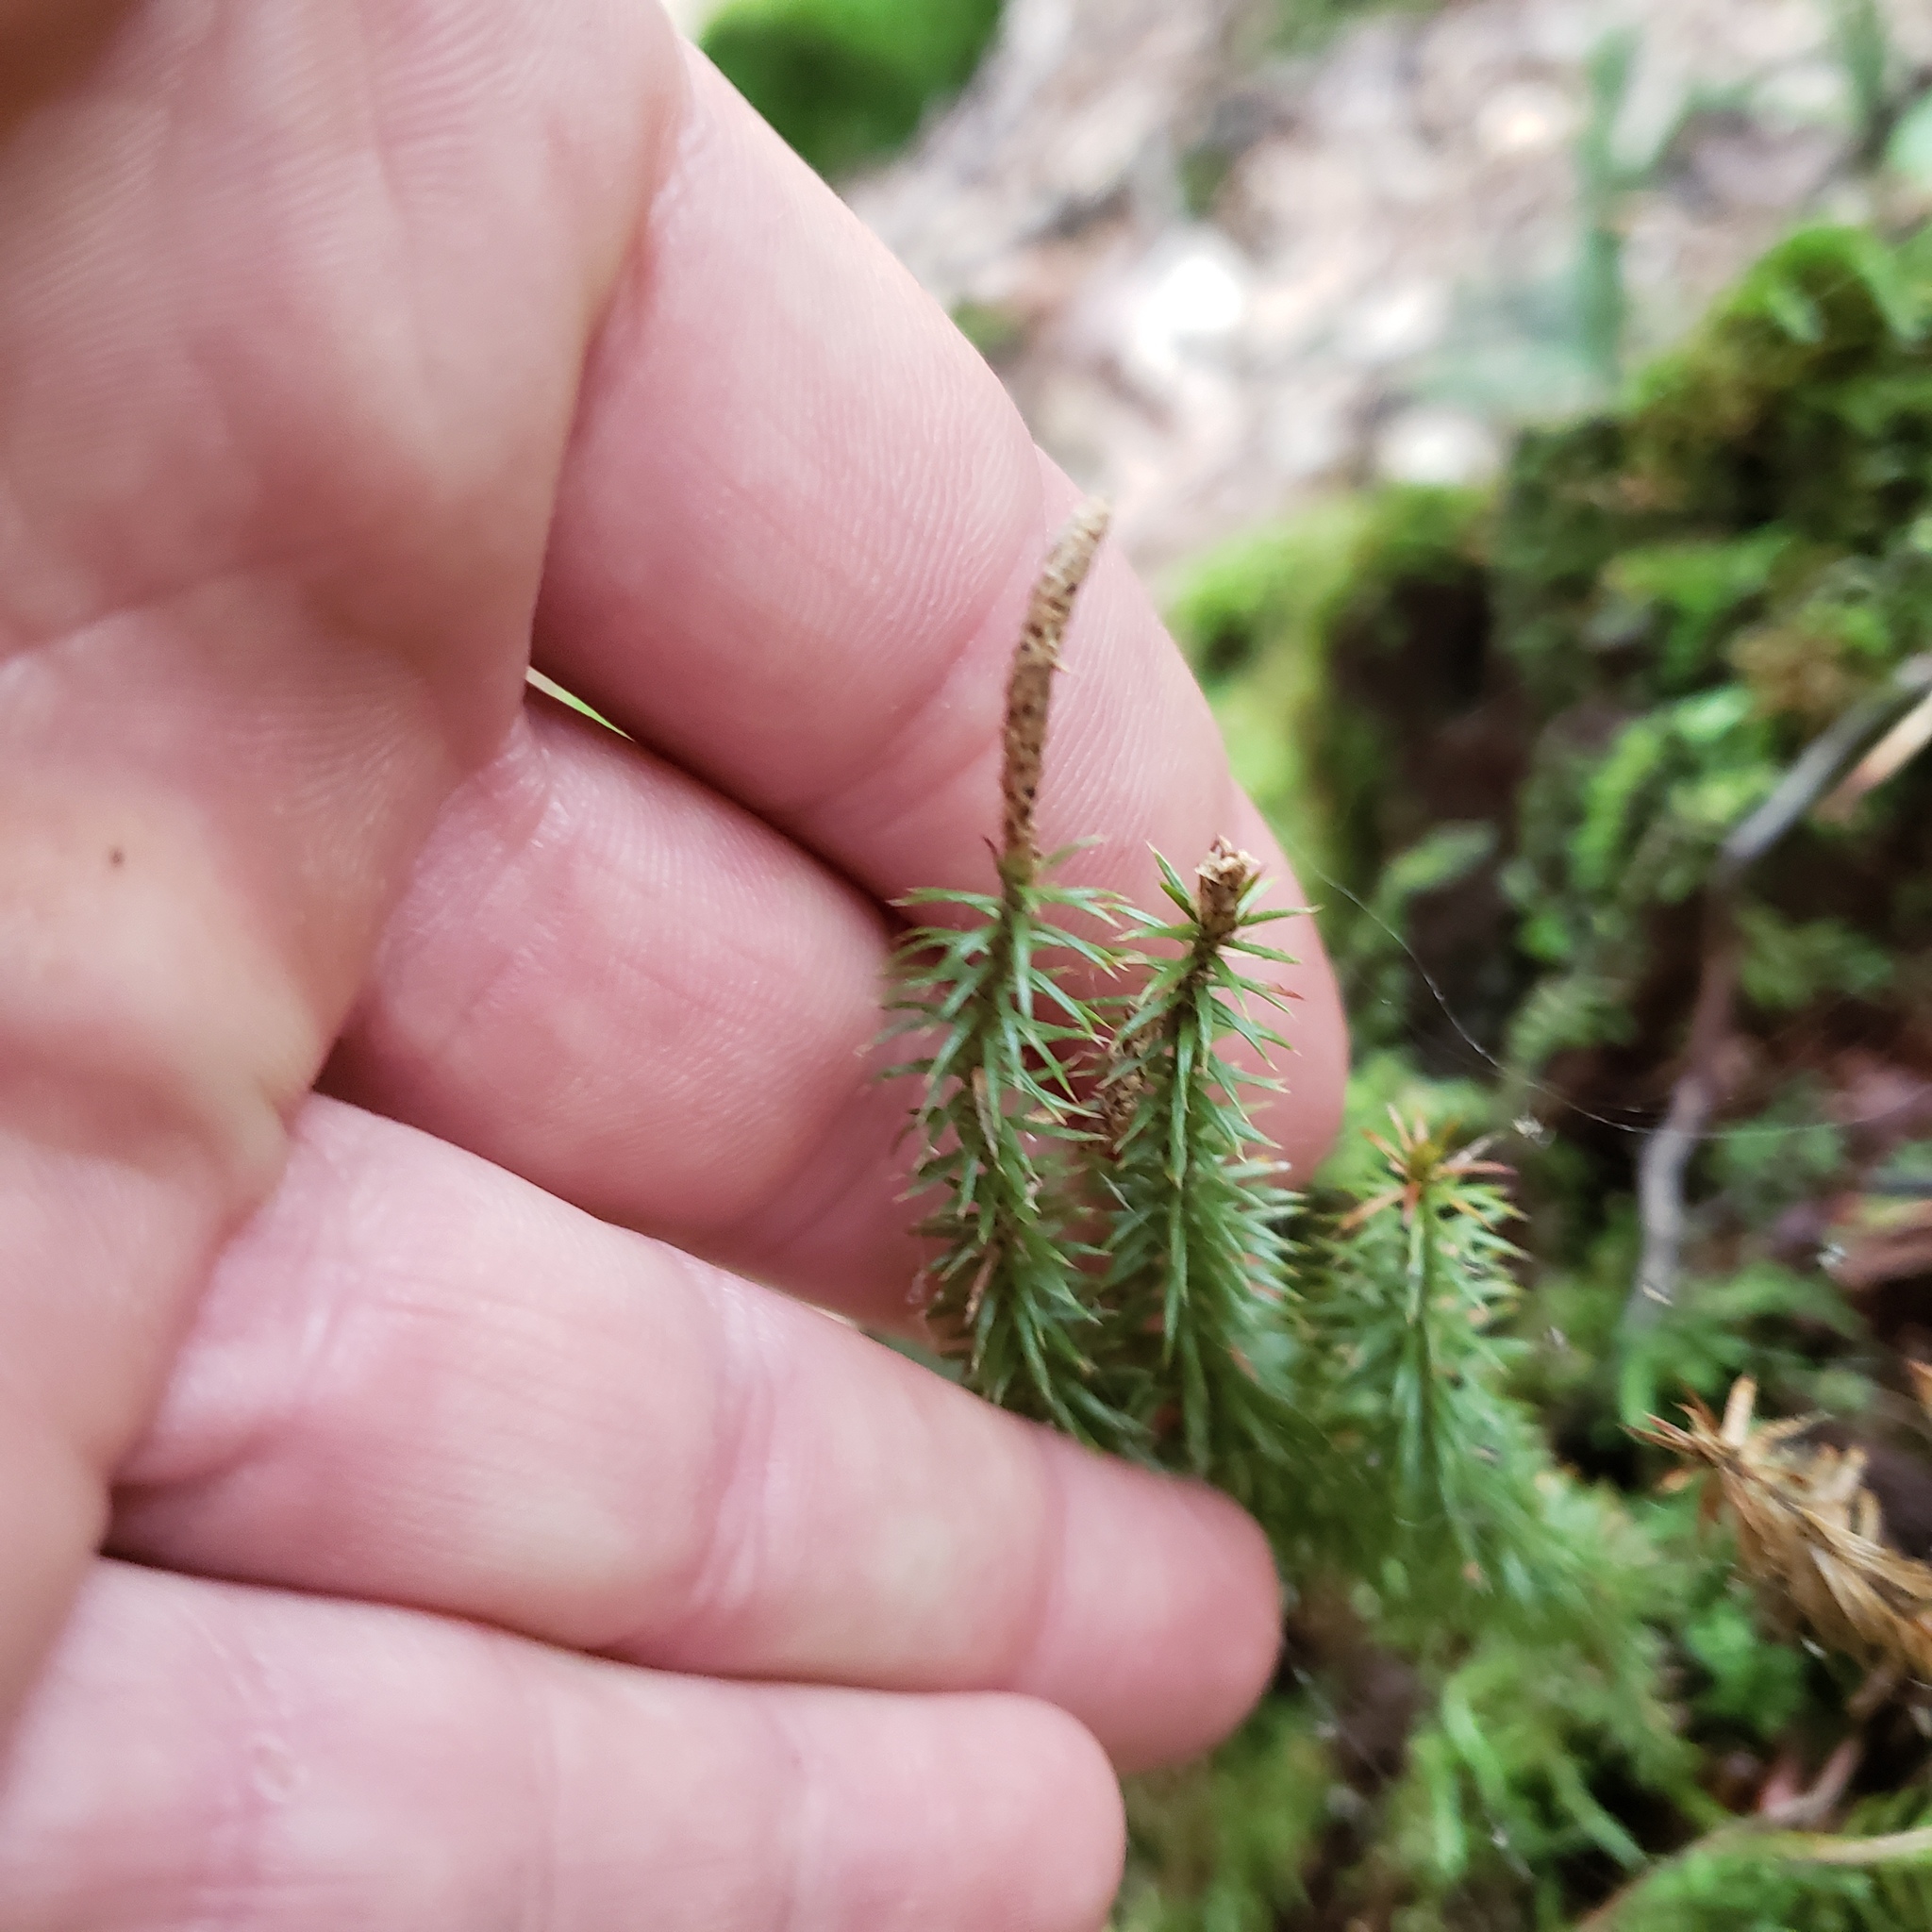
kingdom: Plantae
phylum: Tracheophyta
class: Lycopodiopsida
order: Lycopodiales
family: Lycopodiaceae
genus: Spinulum
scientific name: Spinulum annotinum
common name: Interrupted club-moss
